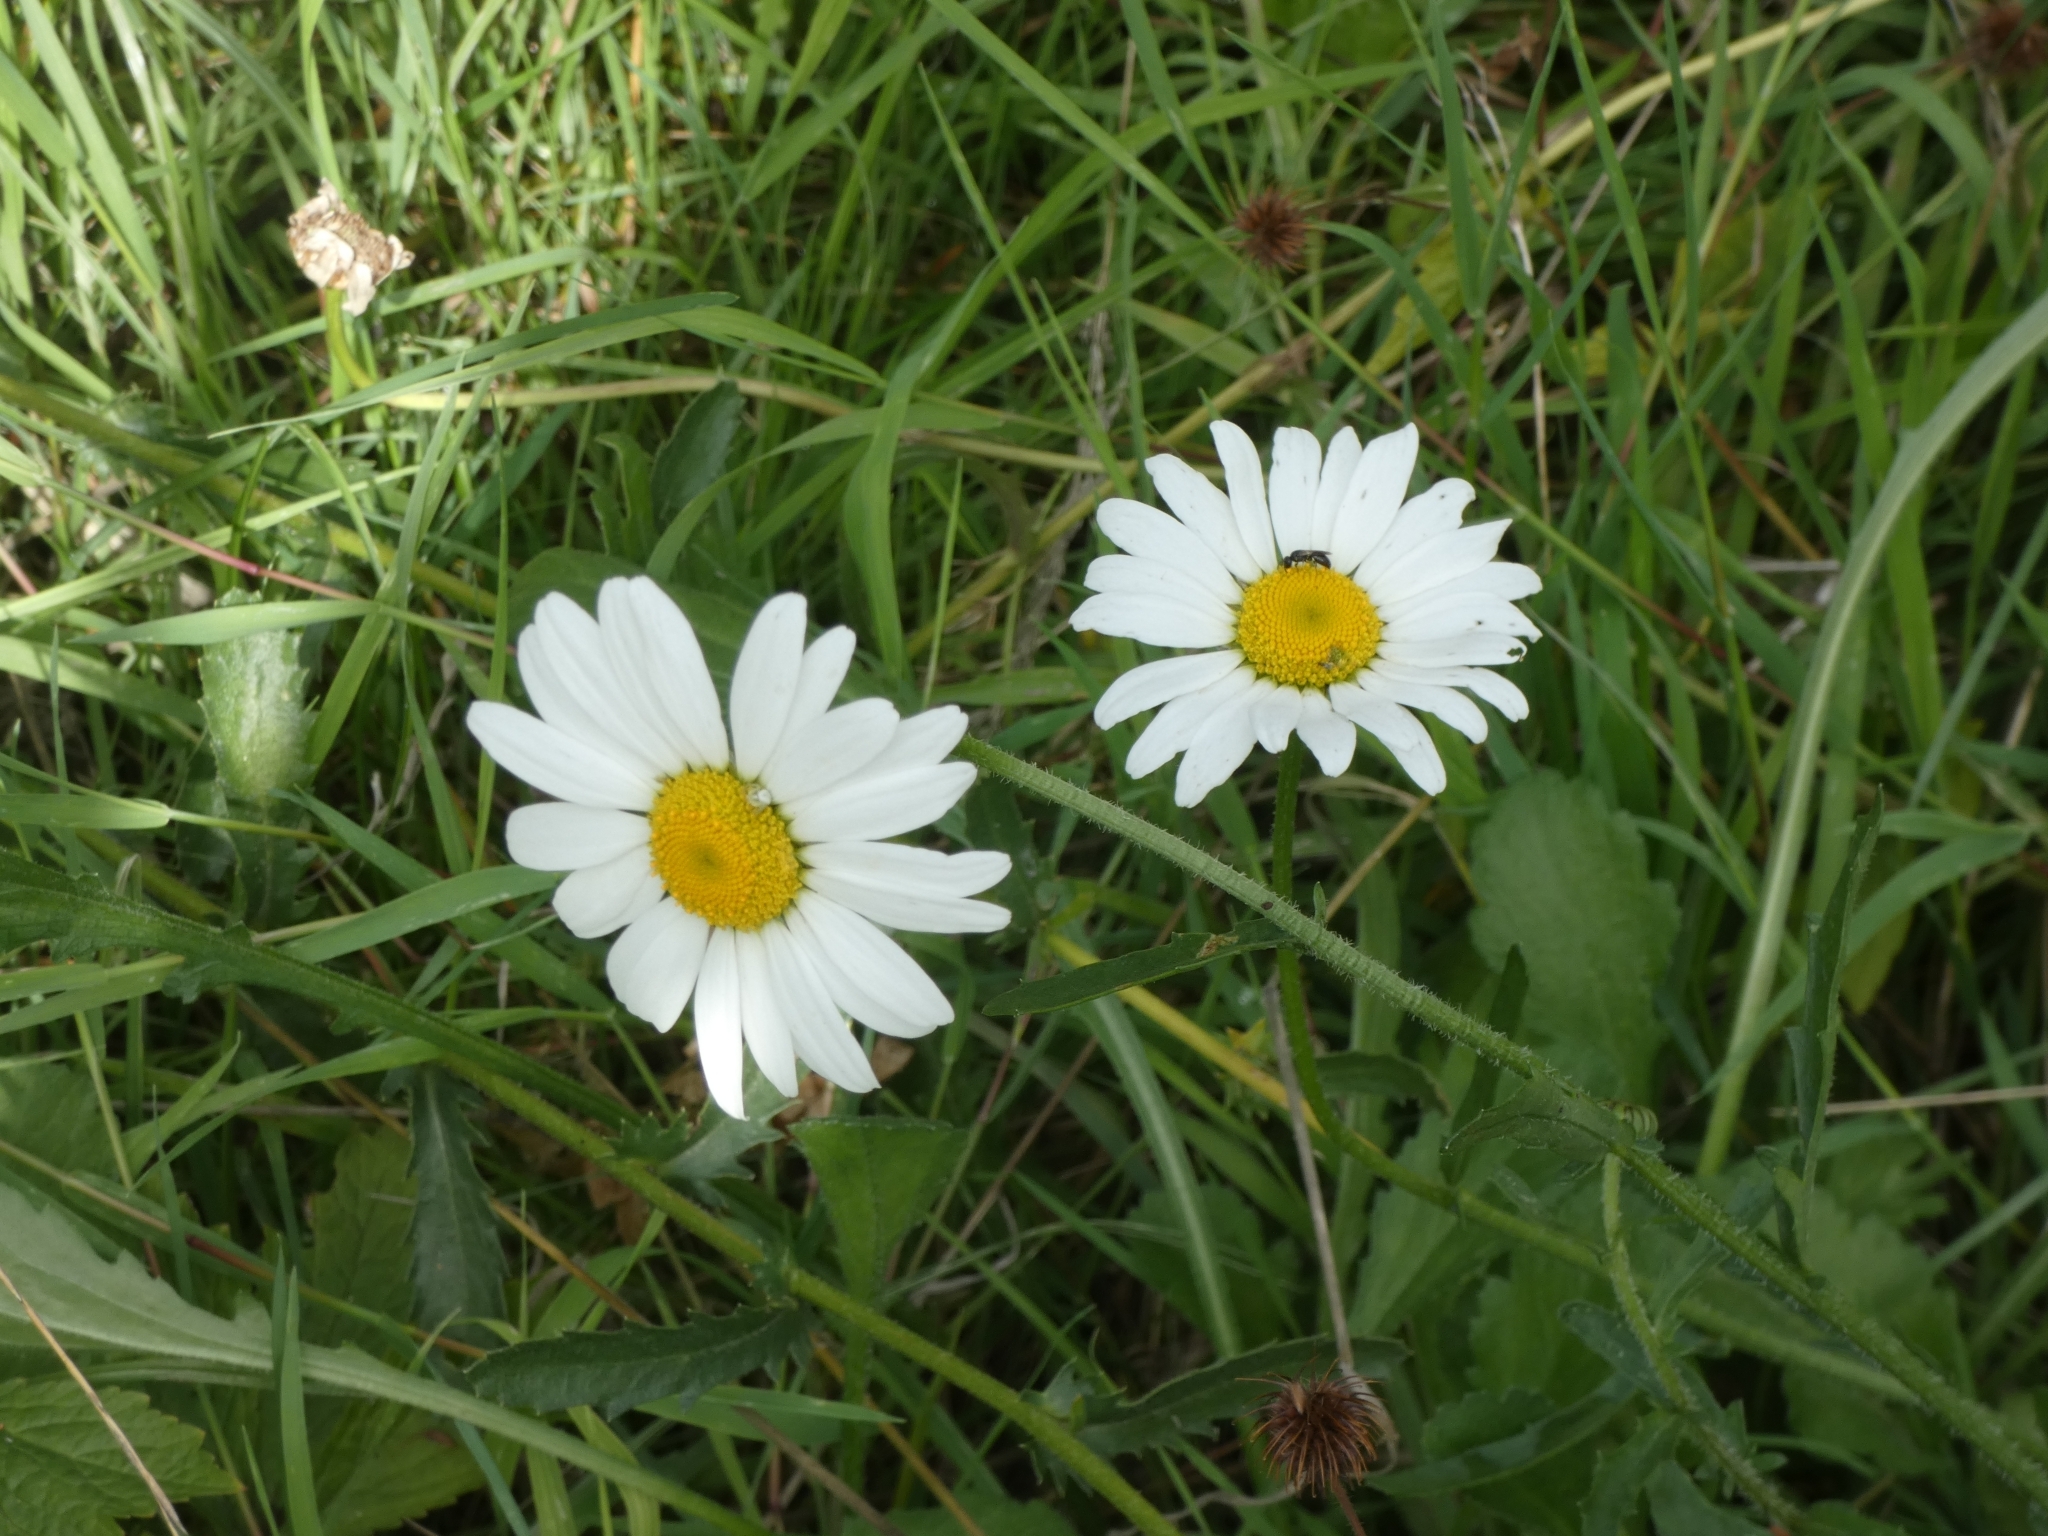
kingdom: Plantae
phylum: Tracheophyta
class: Magnoliopsida
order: Asterales
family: Asteraceae
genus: Leucanthemum
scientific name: Leucanthemum vulgare
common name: Oxeye daisy
